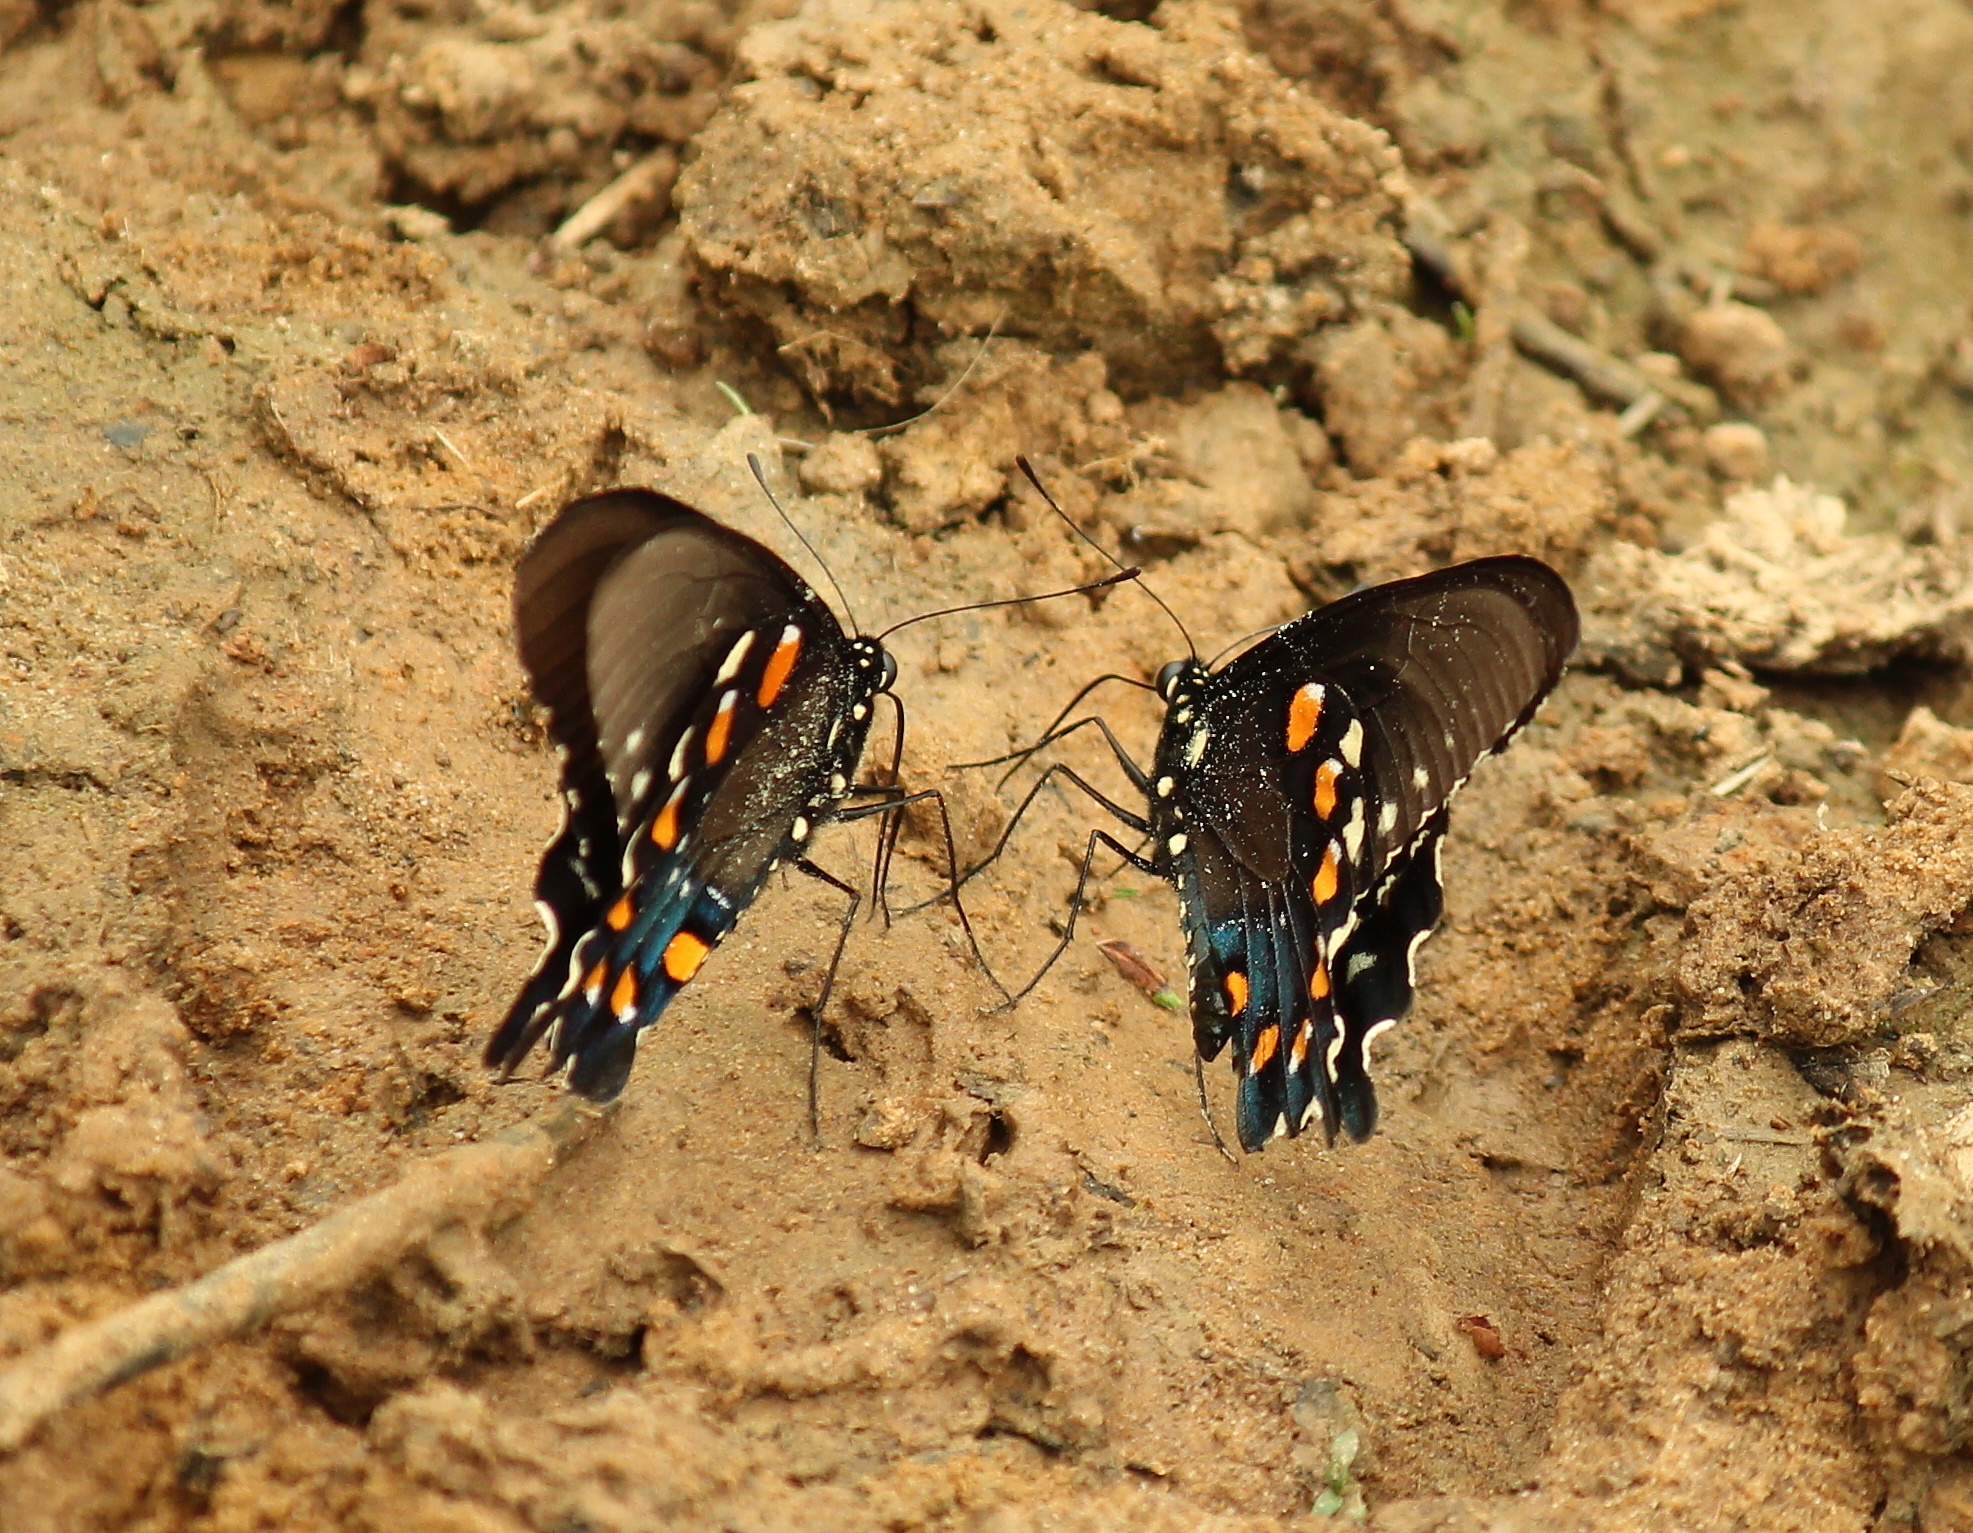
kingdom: Animalia
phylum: Arthropoda
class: Insecta
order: Lepidoptera
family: Papilionidae
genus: Battus
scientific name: Battus philenor
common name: Pipevine swallowtail
